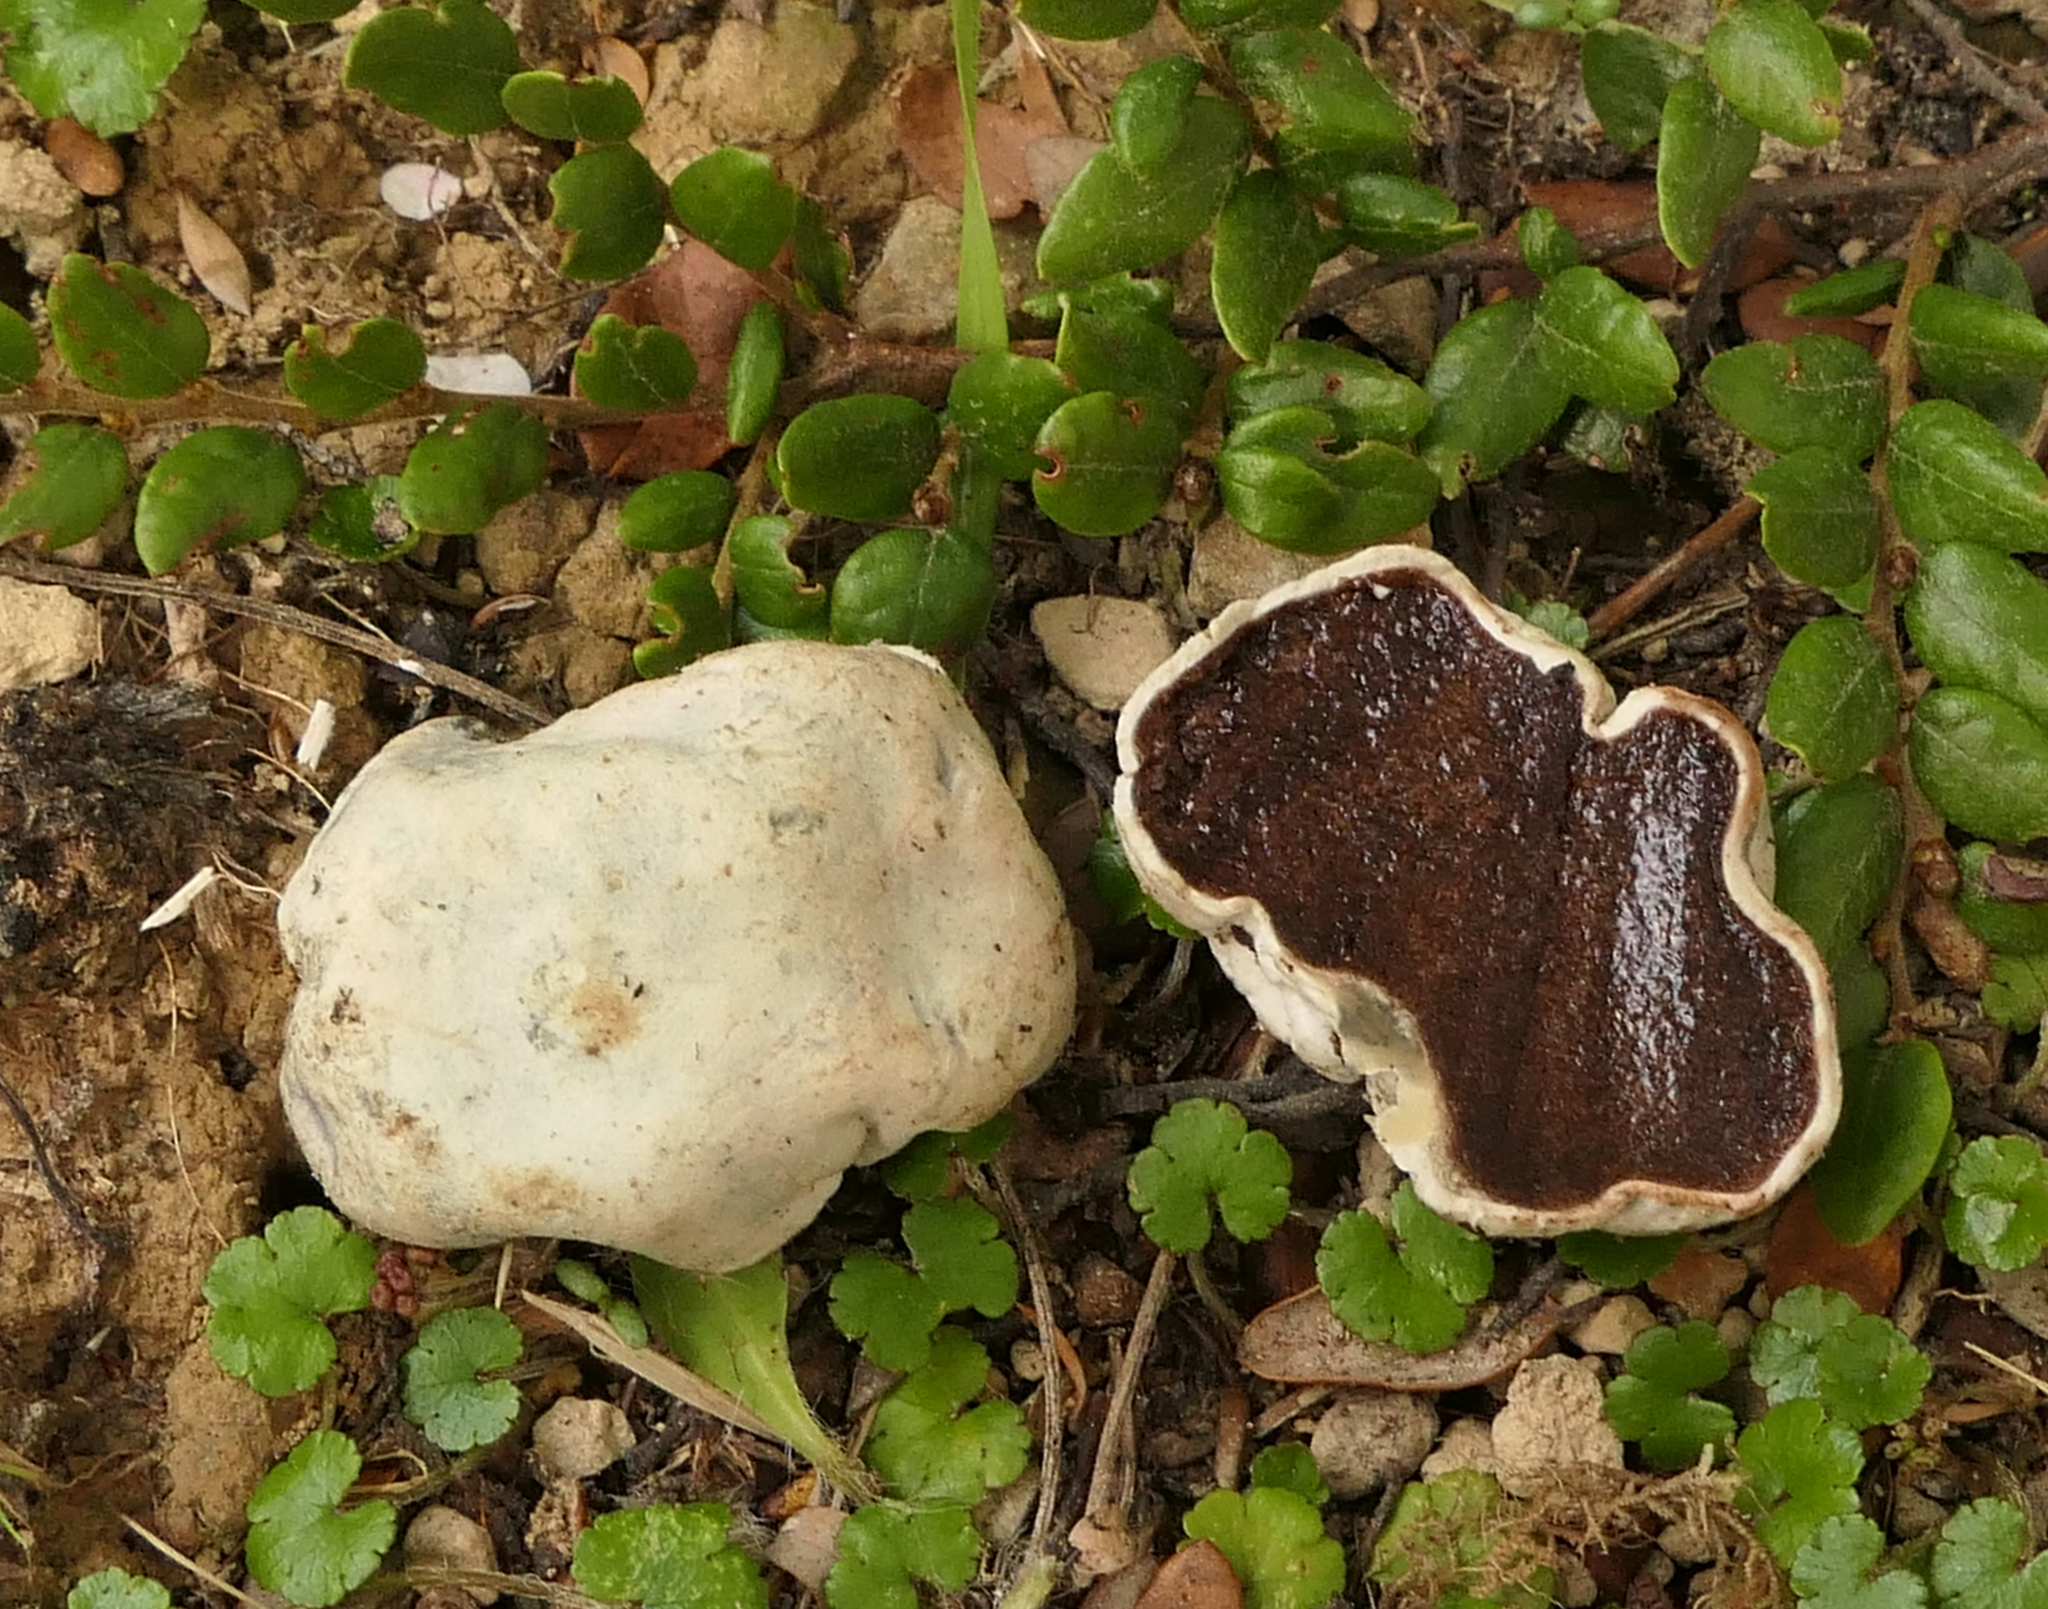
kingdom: Fungi
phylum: Basidiomycota
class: Agaricomycetes
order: Boletales
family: Boletaceae
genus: Leccinum
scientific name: Leccinum pachyderme
